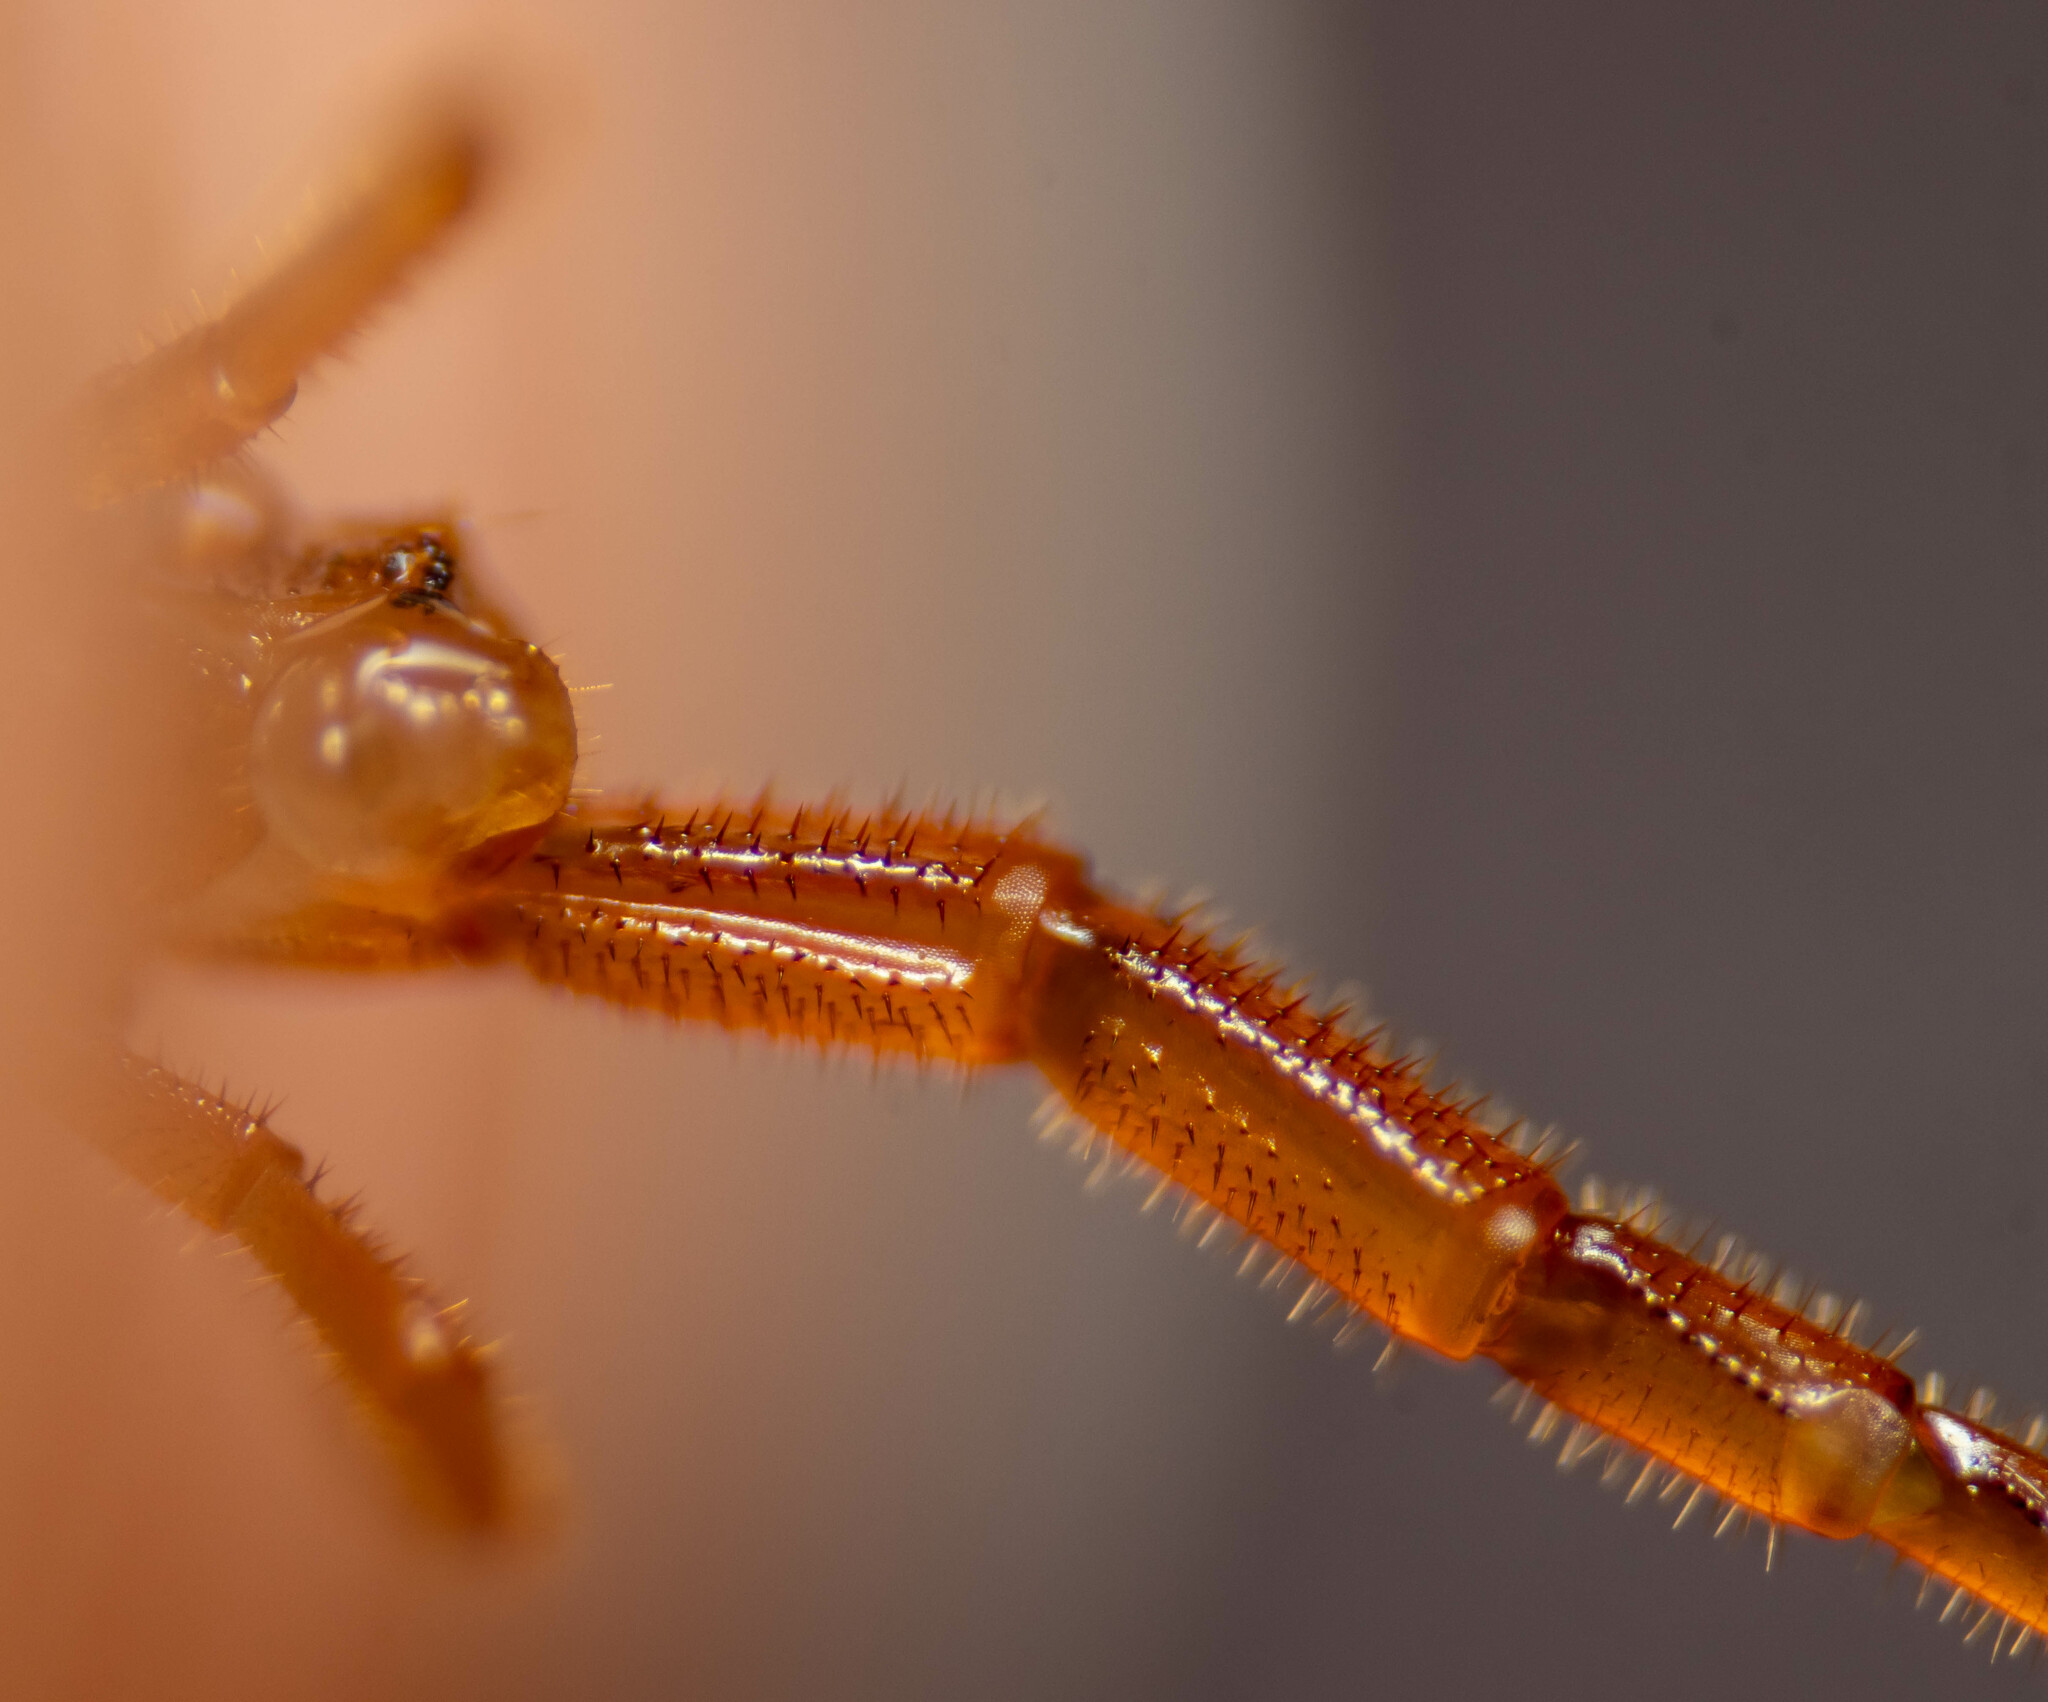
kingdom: Animalia
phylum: Arthropoda
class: Chilopoda
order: Scolopendromorpha
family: Cryptopidae
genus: Cryptops
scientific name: Cryptops hortensis
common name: Centipede
